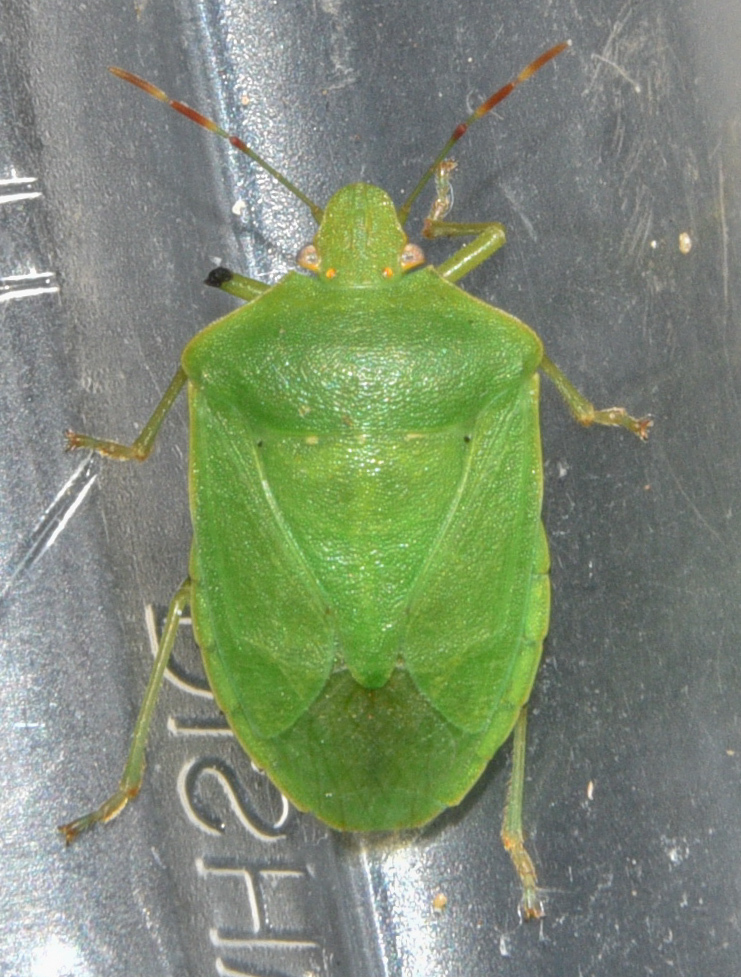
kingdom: Animalia
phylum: Arthropoda
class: Insecta
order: Hemiptera
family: Pentatomidae
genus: Nezara
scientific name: Nezara viridula
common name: Southern green stink bug
